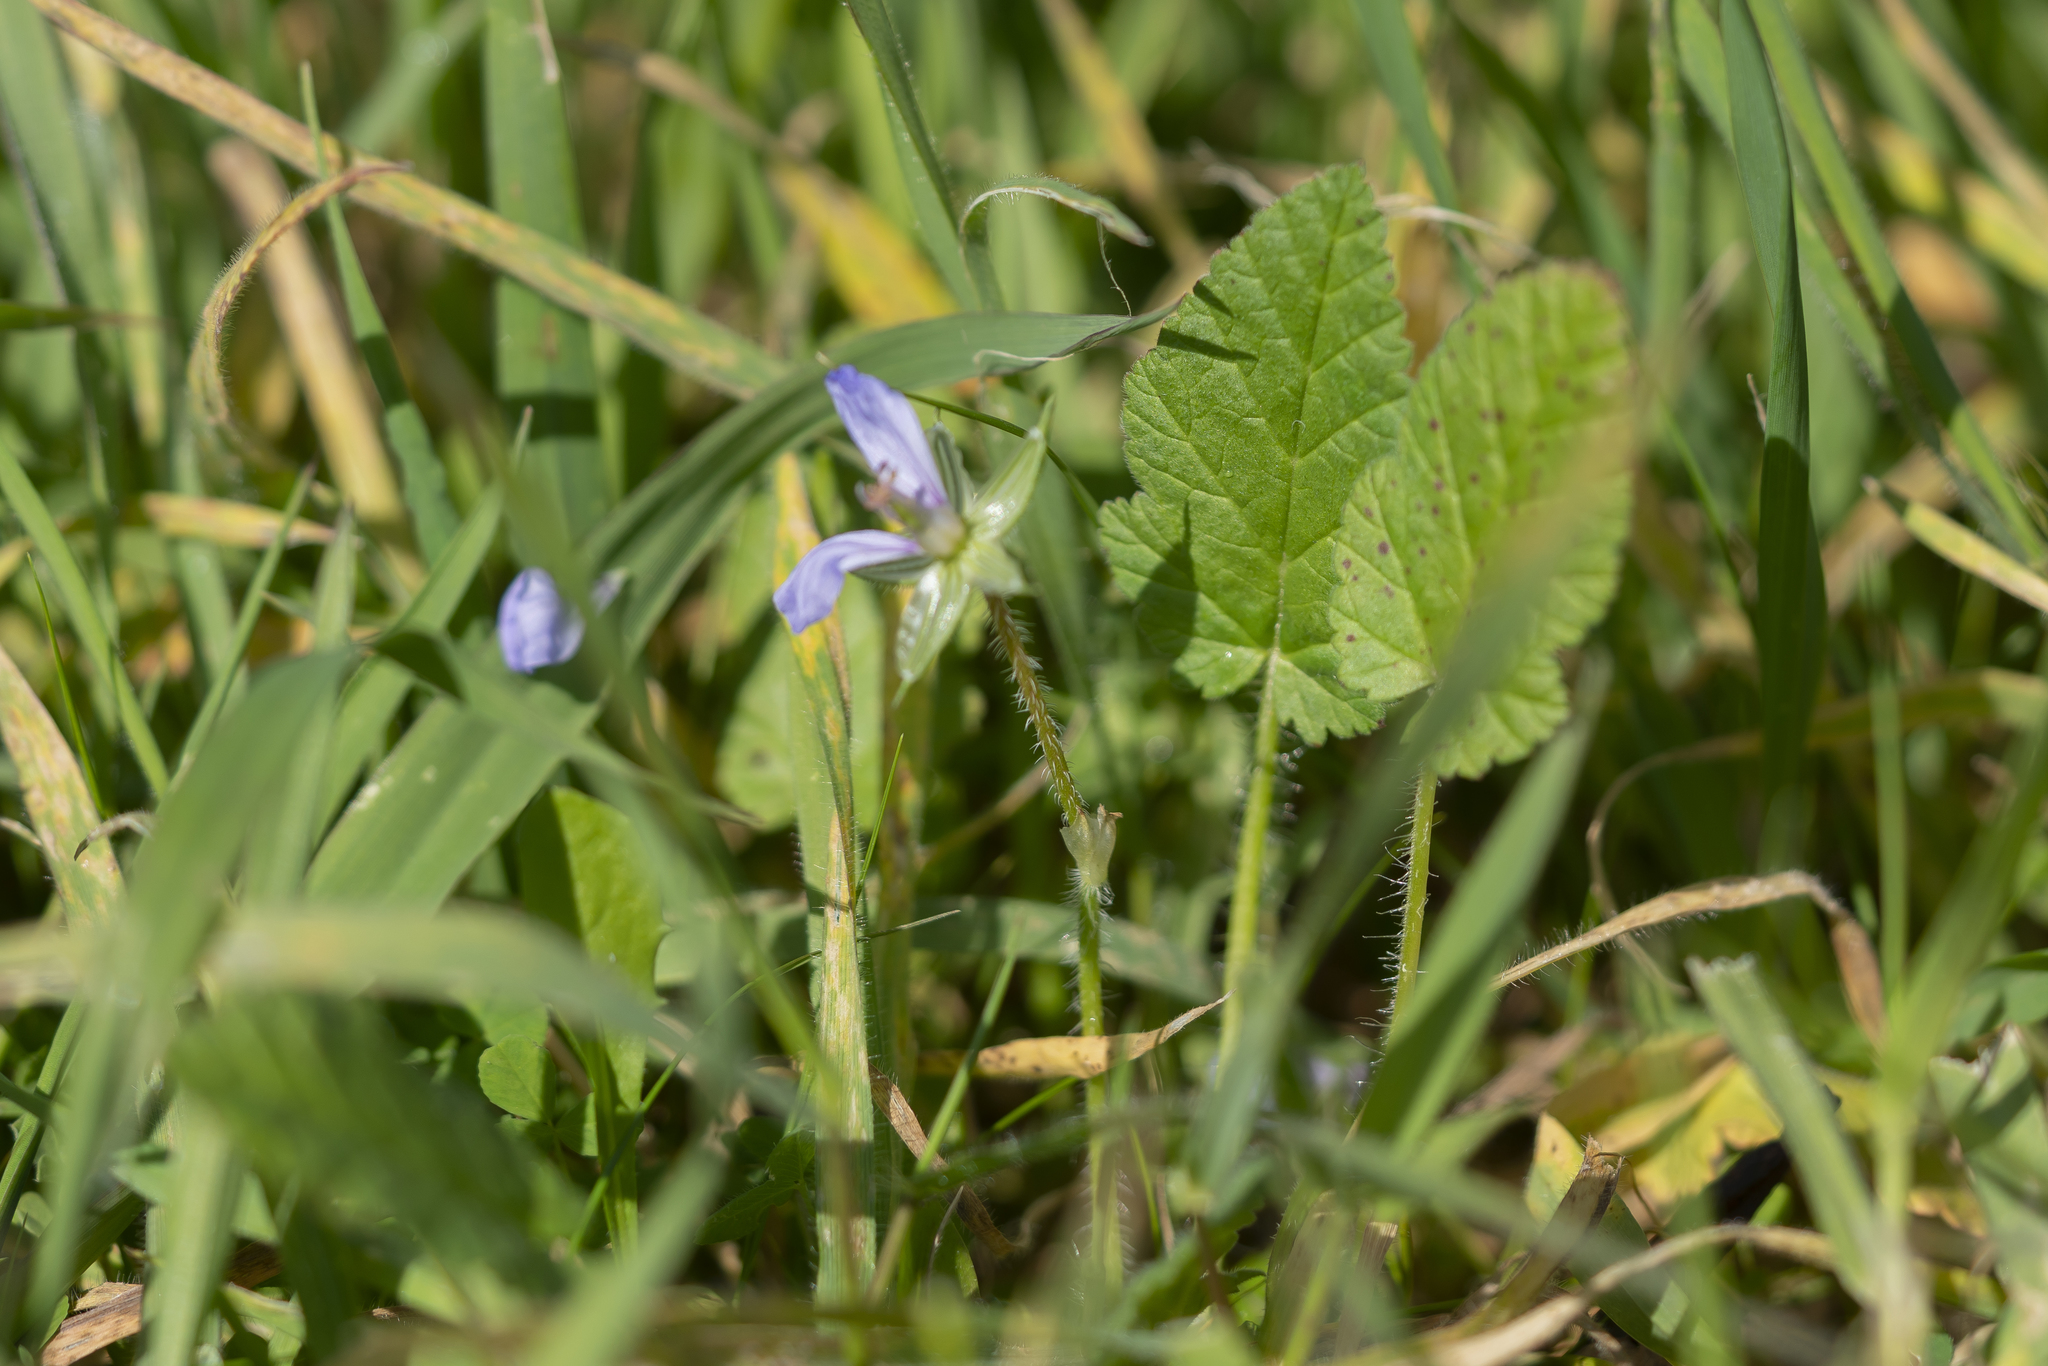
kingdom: Plantae
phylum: Tracheophyta
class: Magnoliopsida
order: Geraniales
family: Geraniaceae
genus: Erodium
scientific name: Erodium gruinum
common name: Iranian stork's bill
